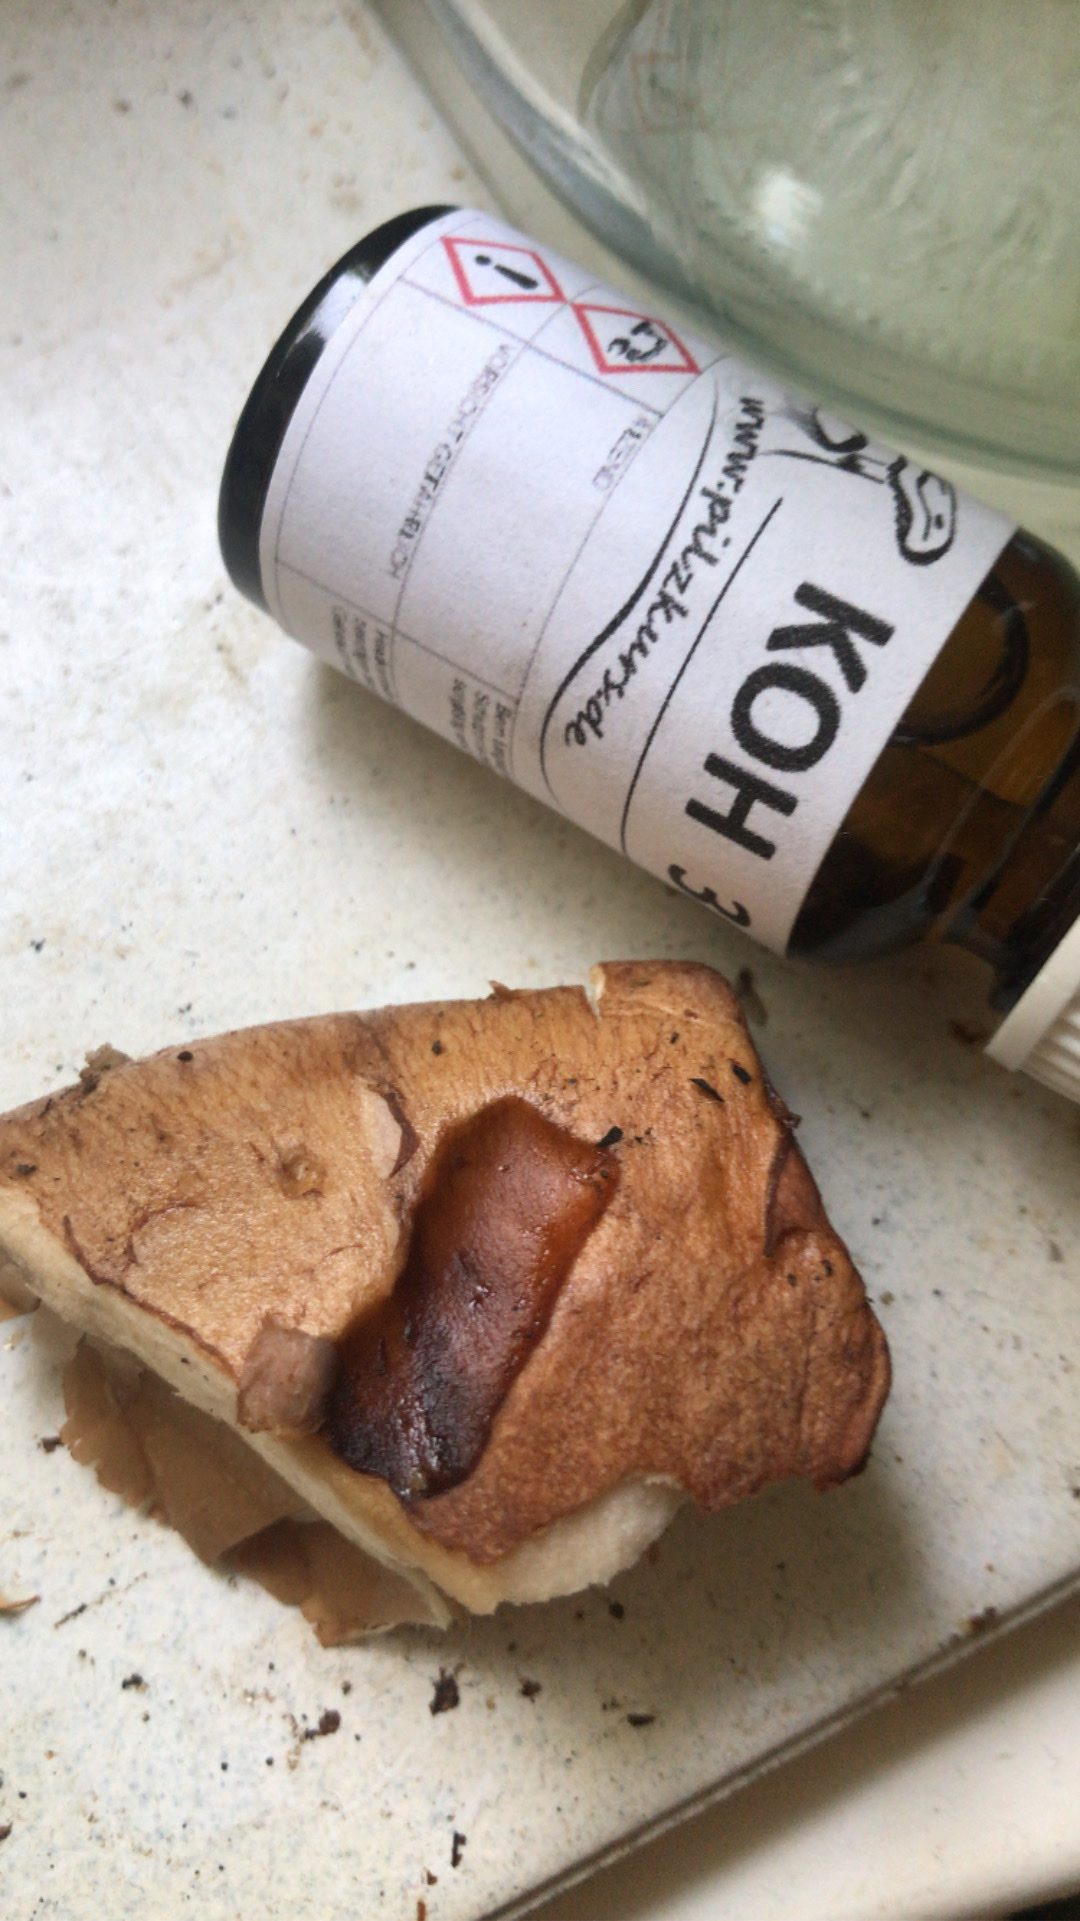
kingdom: Fungi
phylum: Basidiomycota
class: Agaricomycetes
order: Agaricales
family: Cortinariaceae
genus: Phlegmacium
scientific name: Phlegmacium balteatocumatile
